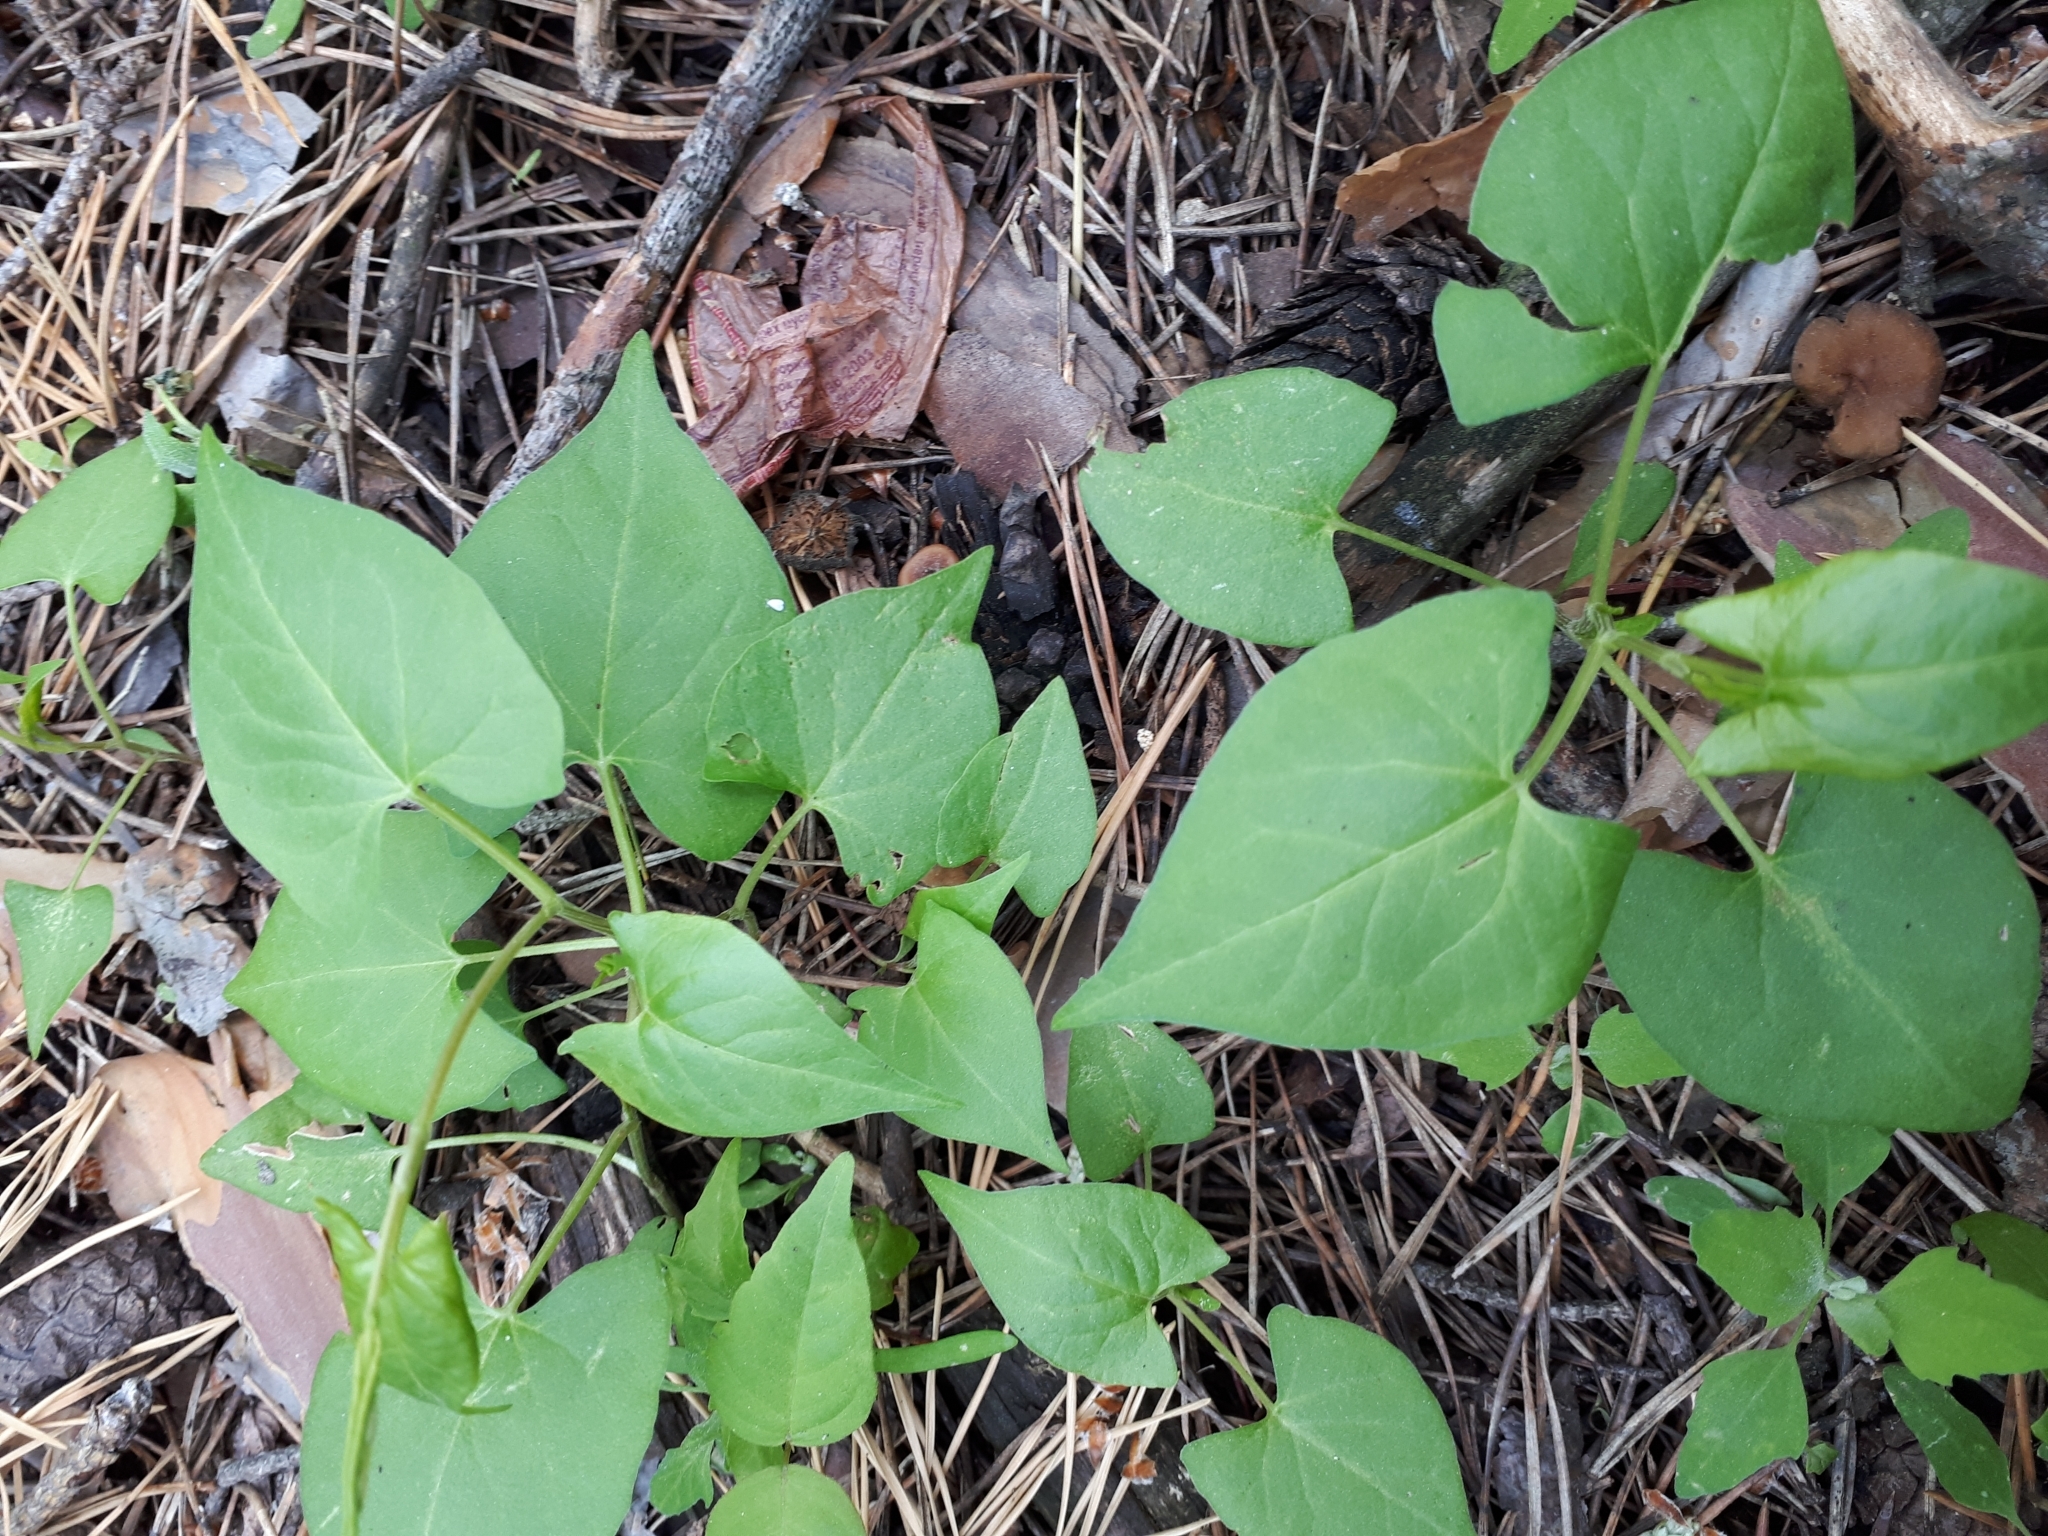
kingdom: Plantae
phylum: Tracheophyta
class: Magnoliopsida
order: Caryophyllales
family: Polygonaceae
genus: Fallopia
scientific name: Fallopia convolvulus
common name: Black bindweed
